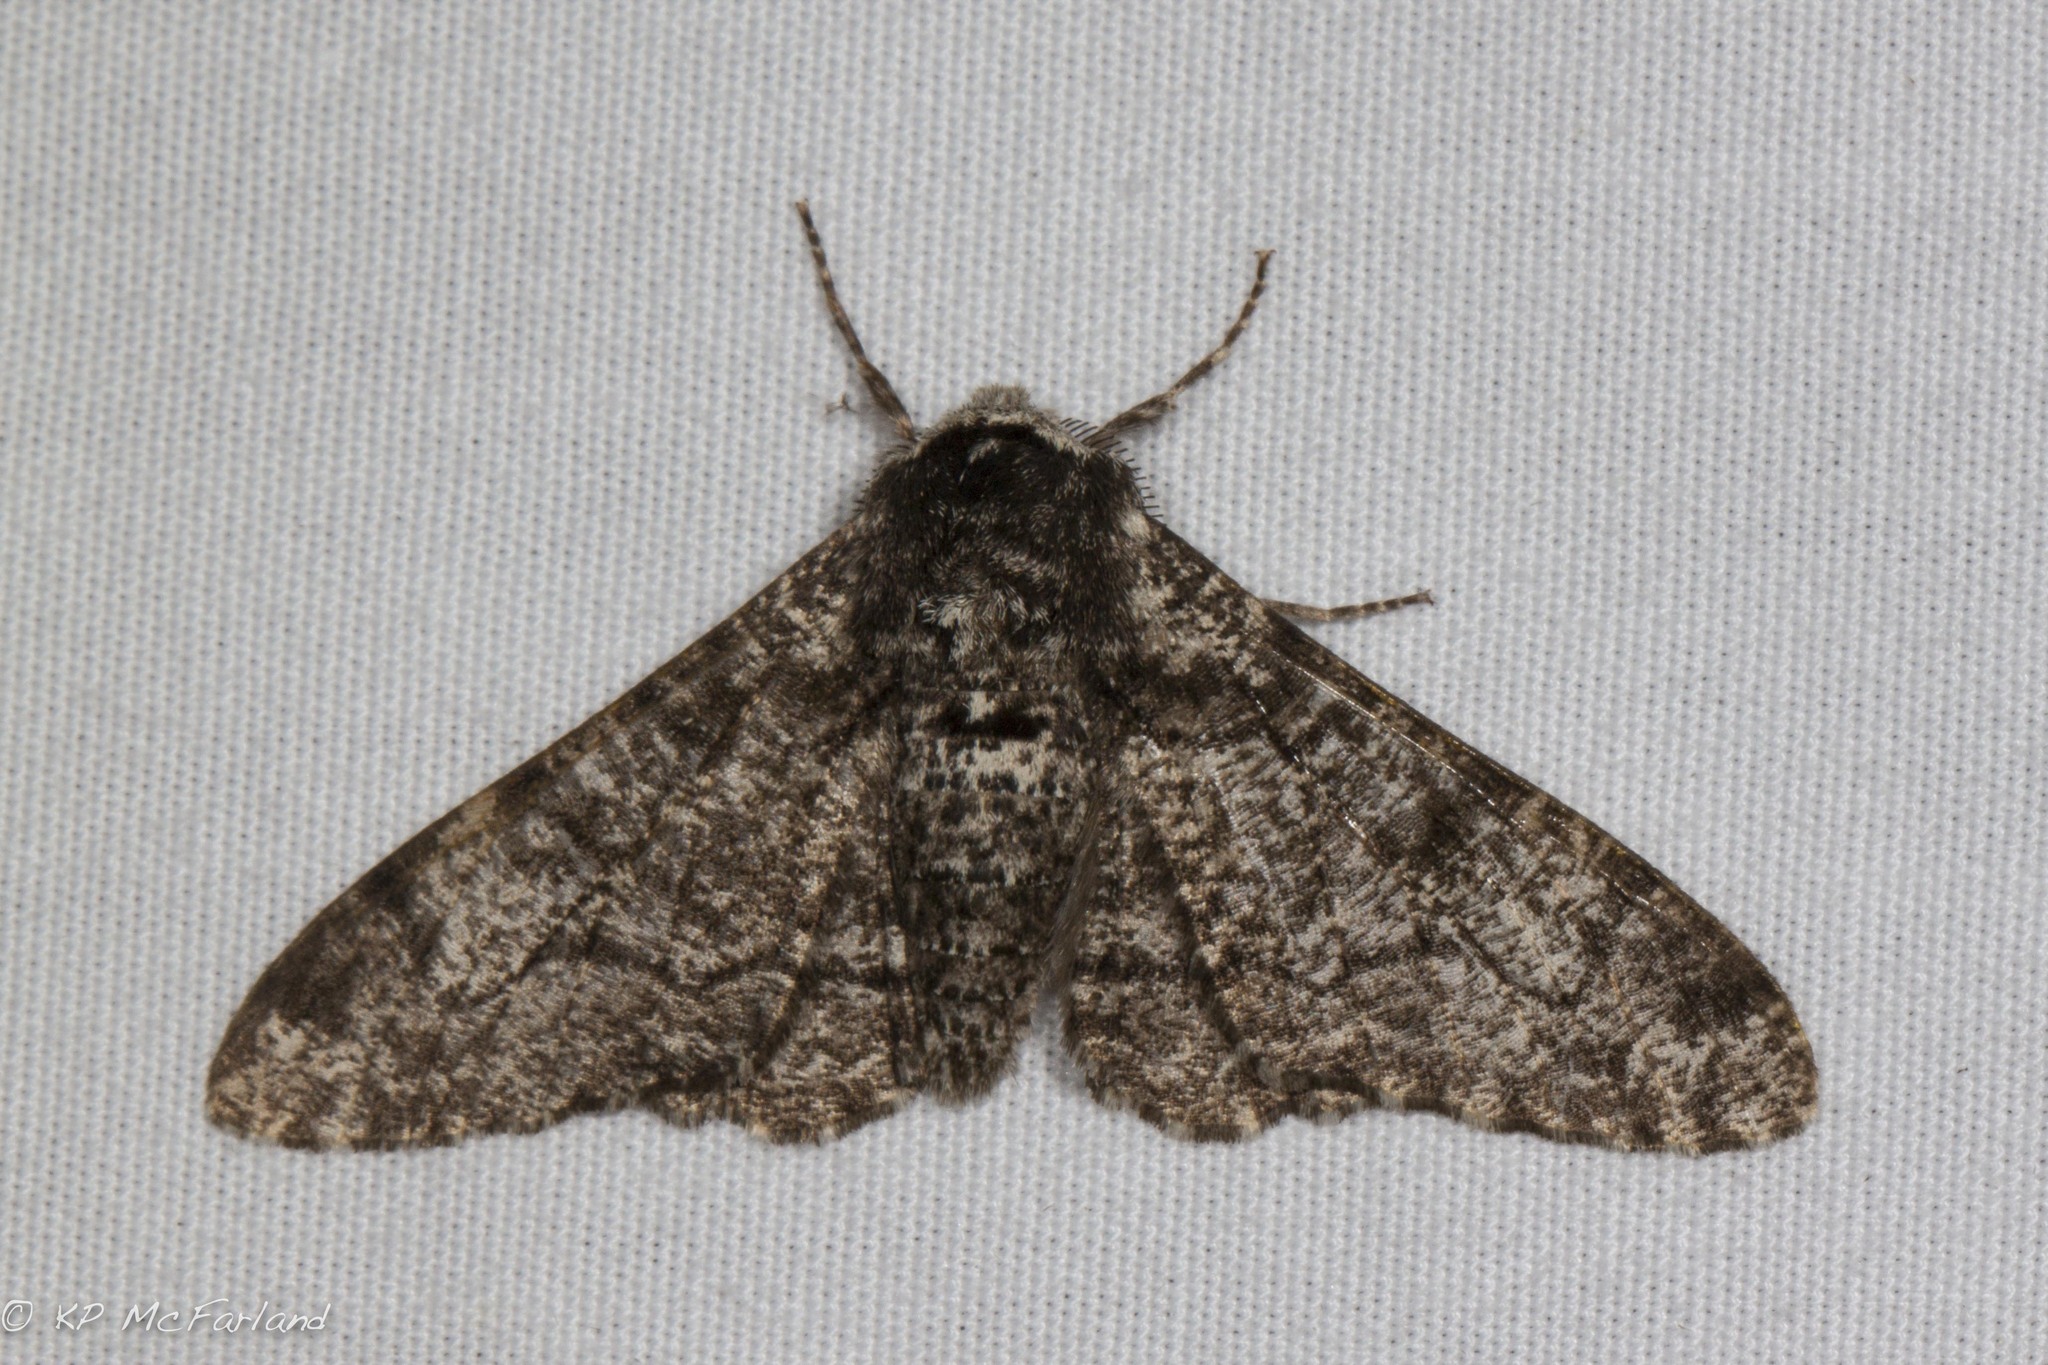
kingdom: Animalia
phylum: Arthropoda
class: Insecta
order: Lepidoptera
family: Geometridae
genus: Biston
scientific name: Biston betularia
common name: Peppered moth
